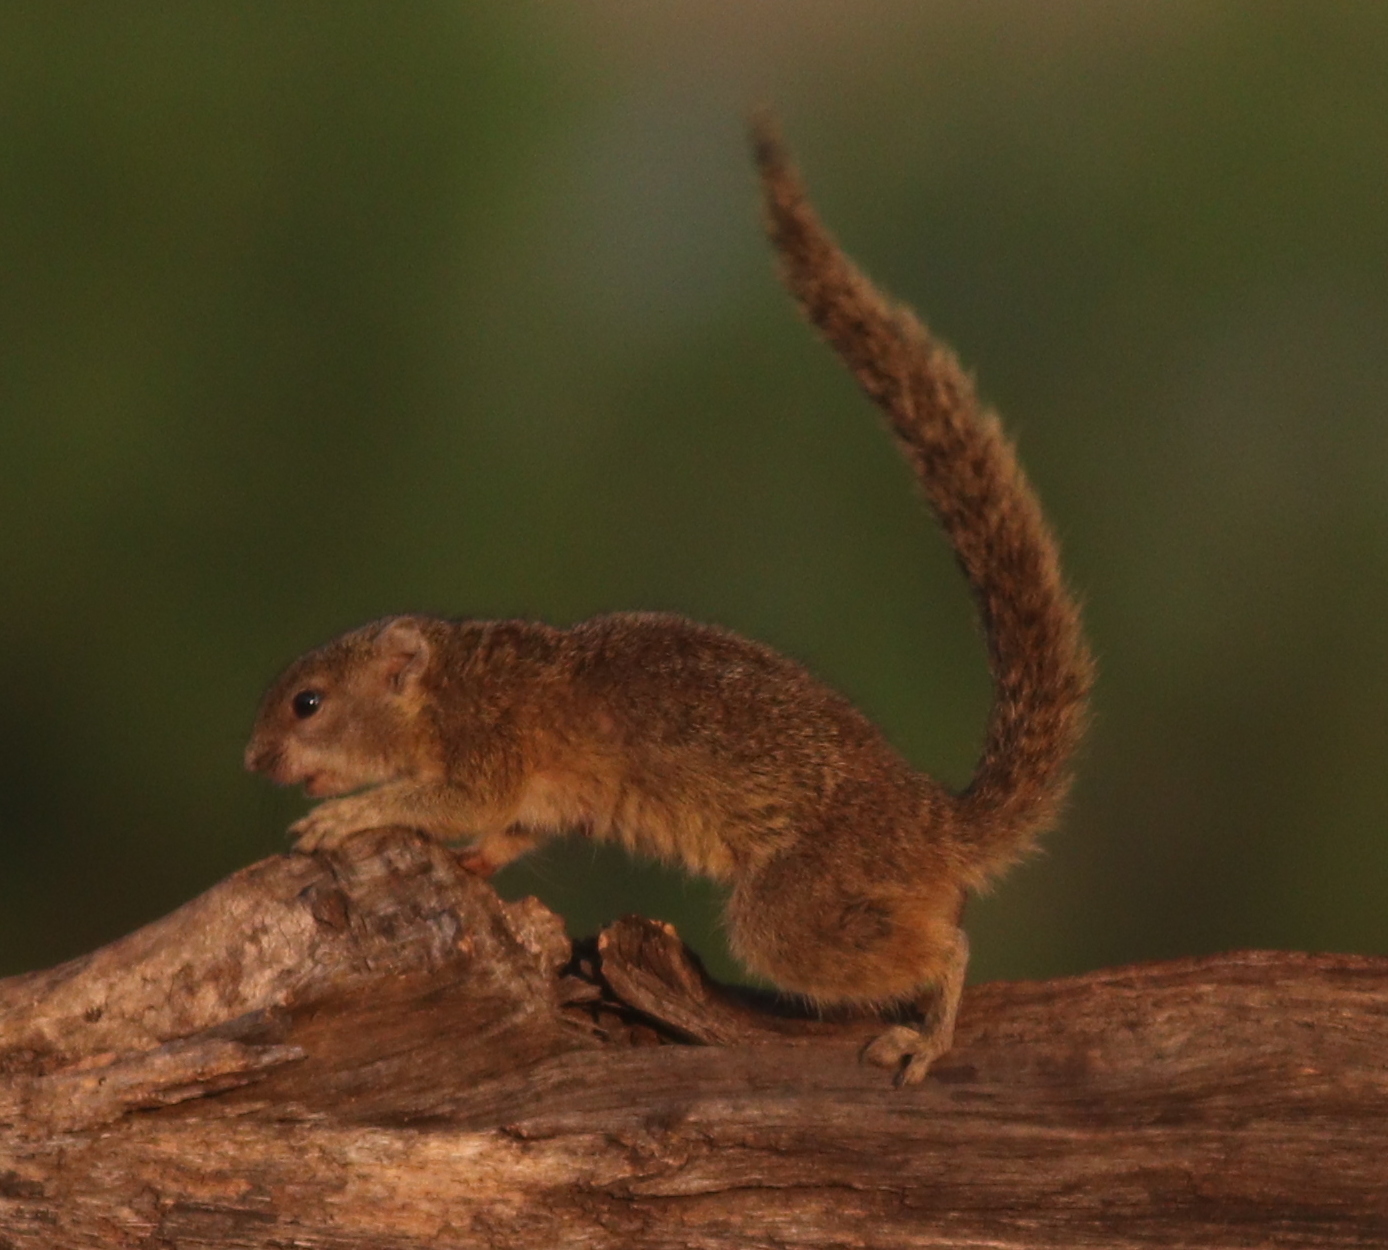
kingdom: Animalia
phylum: Chordata
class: Mammalia
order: Rodentia
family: Sciuridae
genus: Paraxerus
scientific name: Paraxerus cepapi
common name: Smith's bush squirrel
